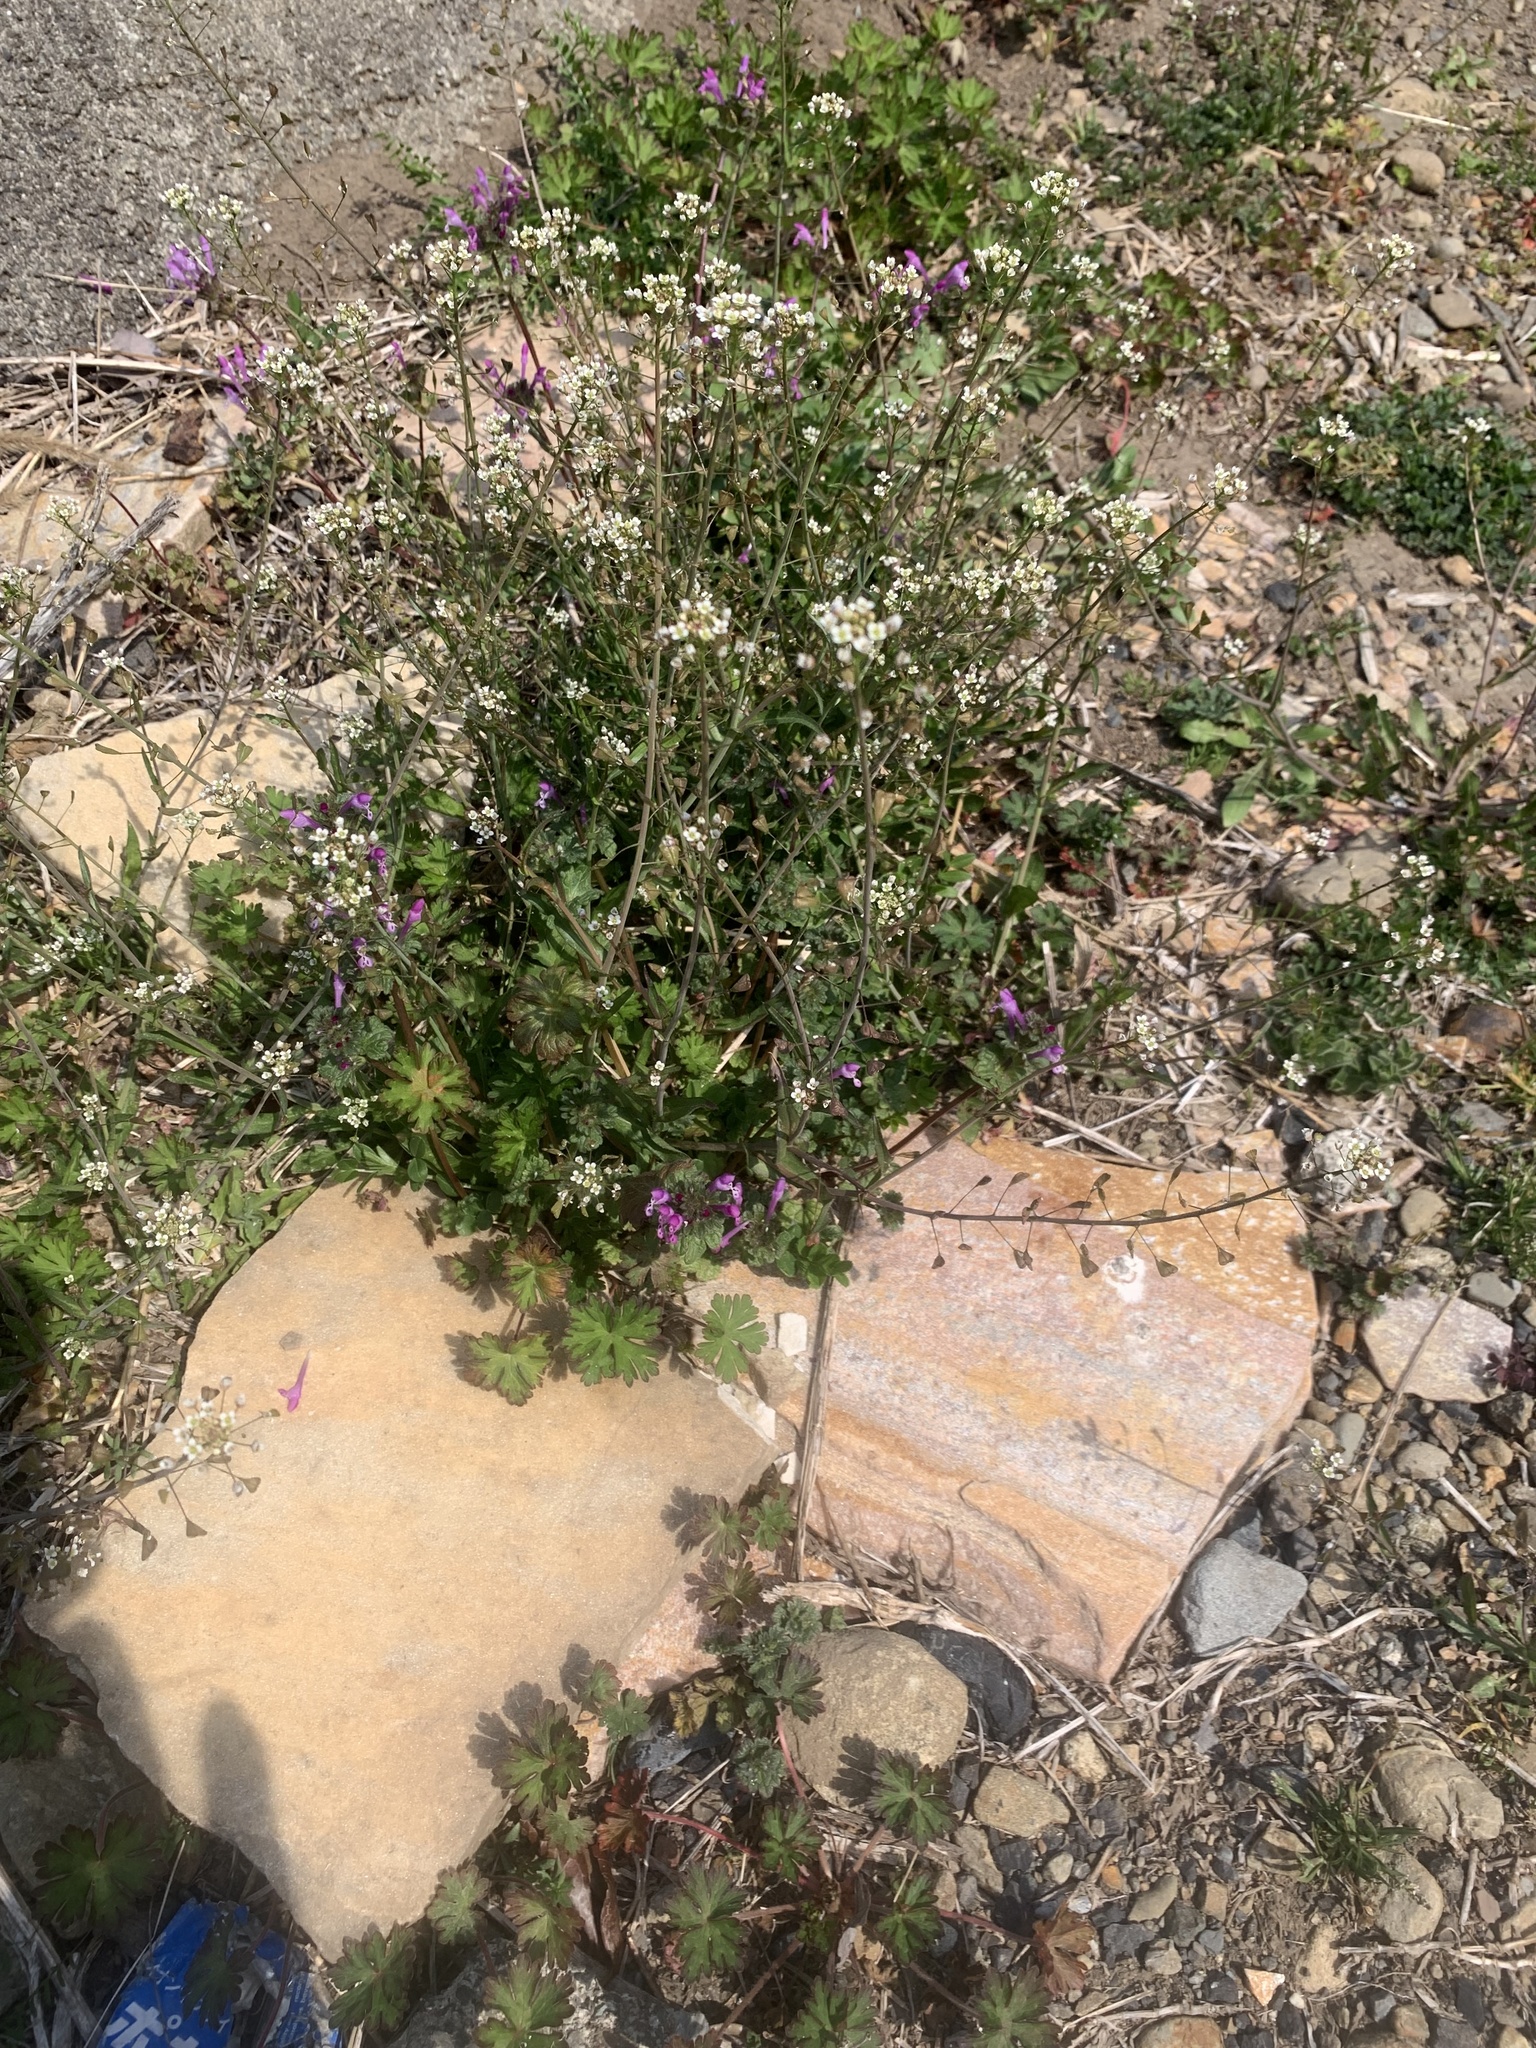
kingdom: Plantae
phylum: Tracheophyta
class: Magnoliopsida
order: Brassicales
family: Brassicaceae
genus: Capsella
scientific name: Capsella bursa-pastoris
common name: Shepherd's purse
